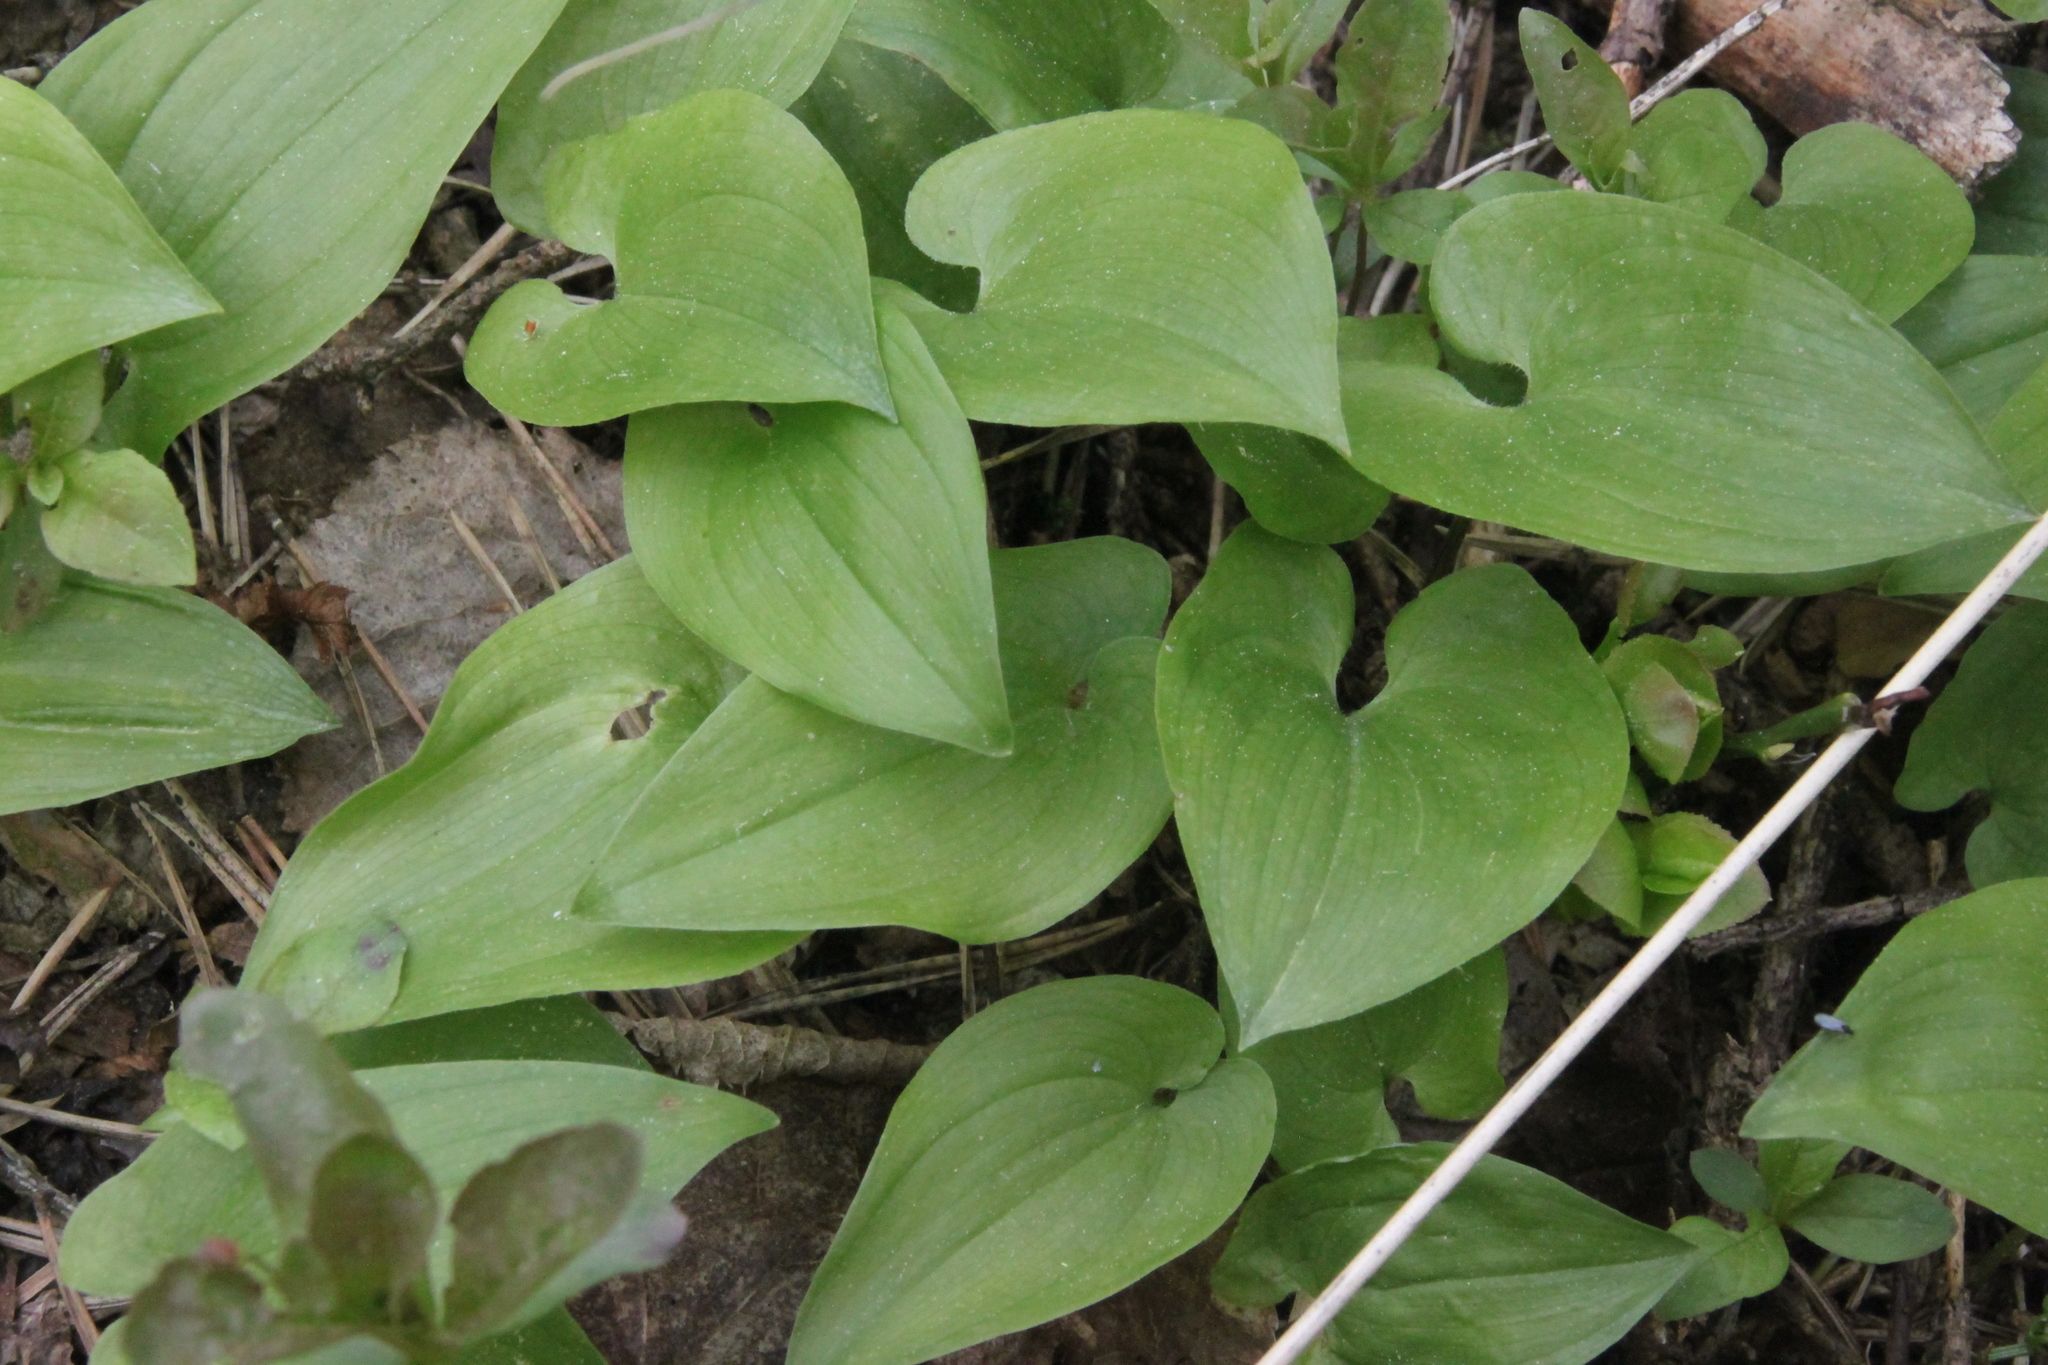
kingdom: Plantae
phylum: Tracheophyta
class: Liliopsida
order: Asparagales
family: Asparagaceae
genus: Maianthemum
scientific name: Maianthemum bifolium
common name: May lily
